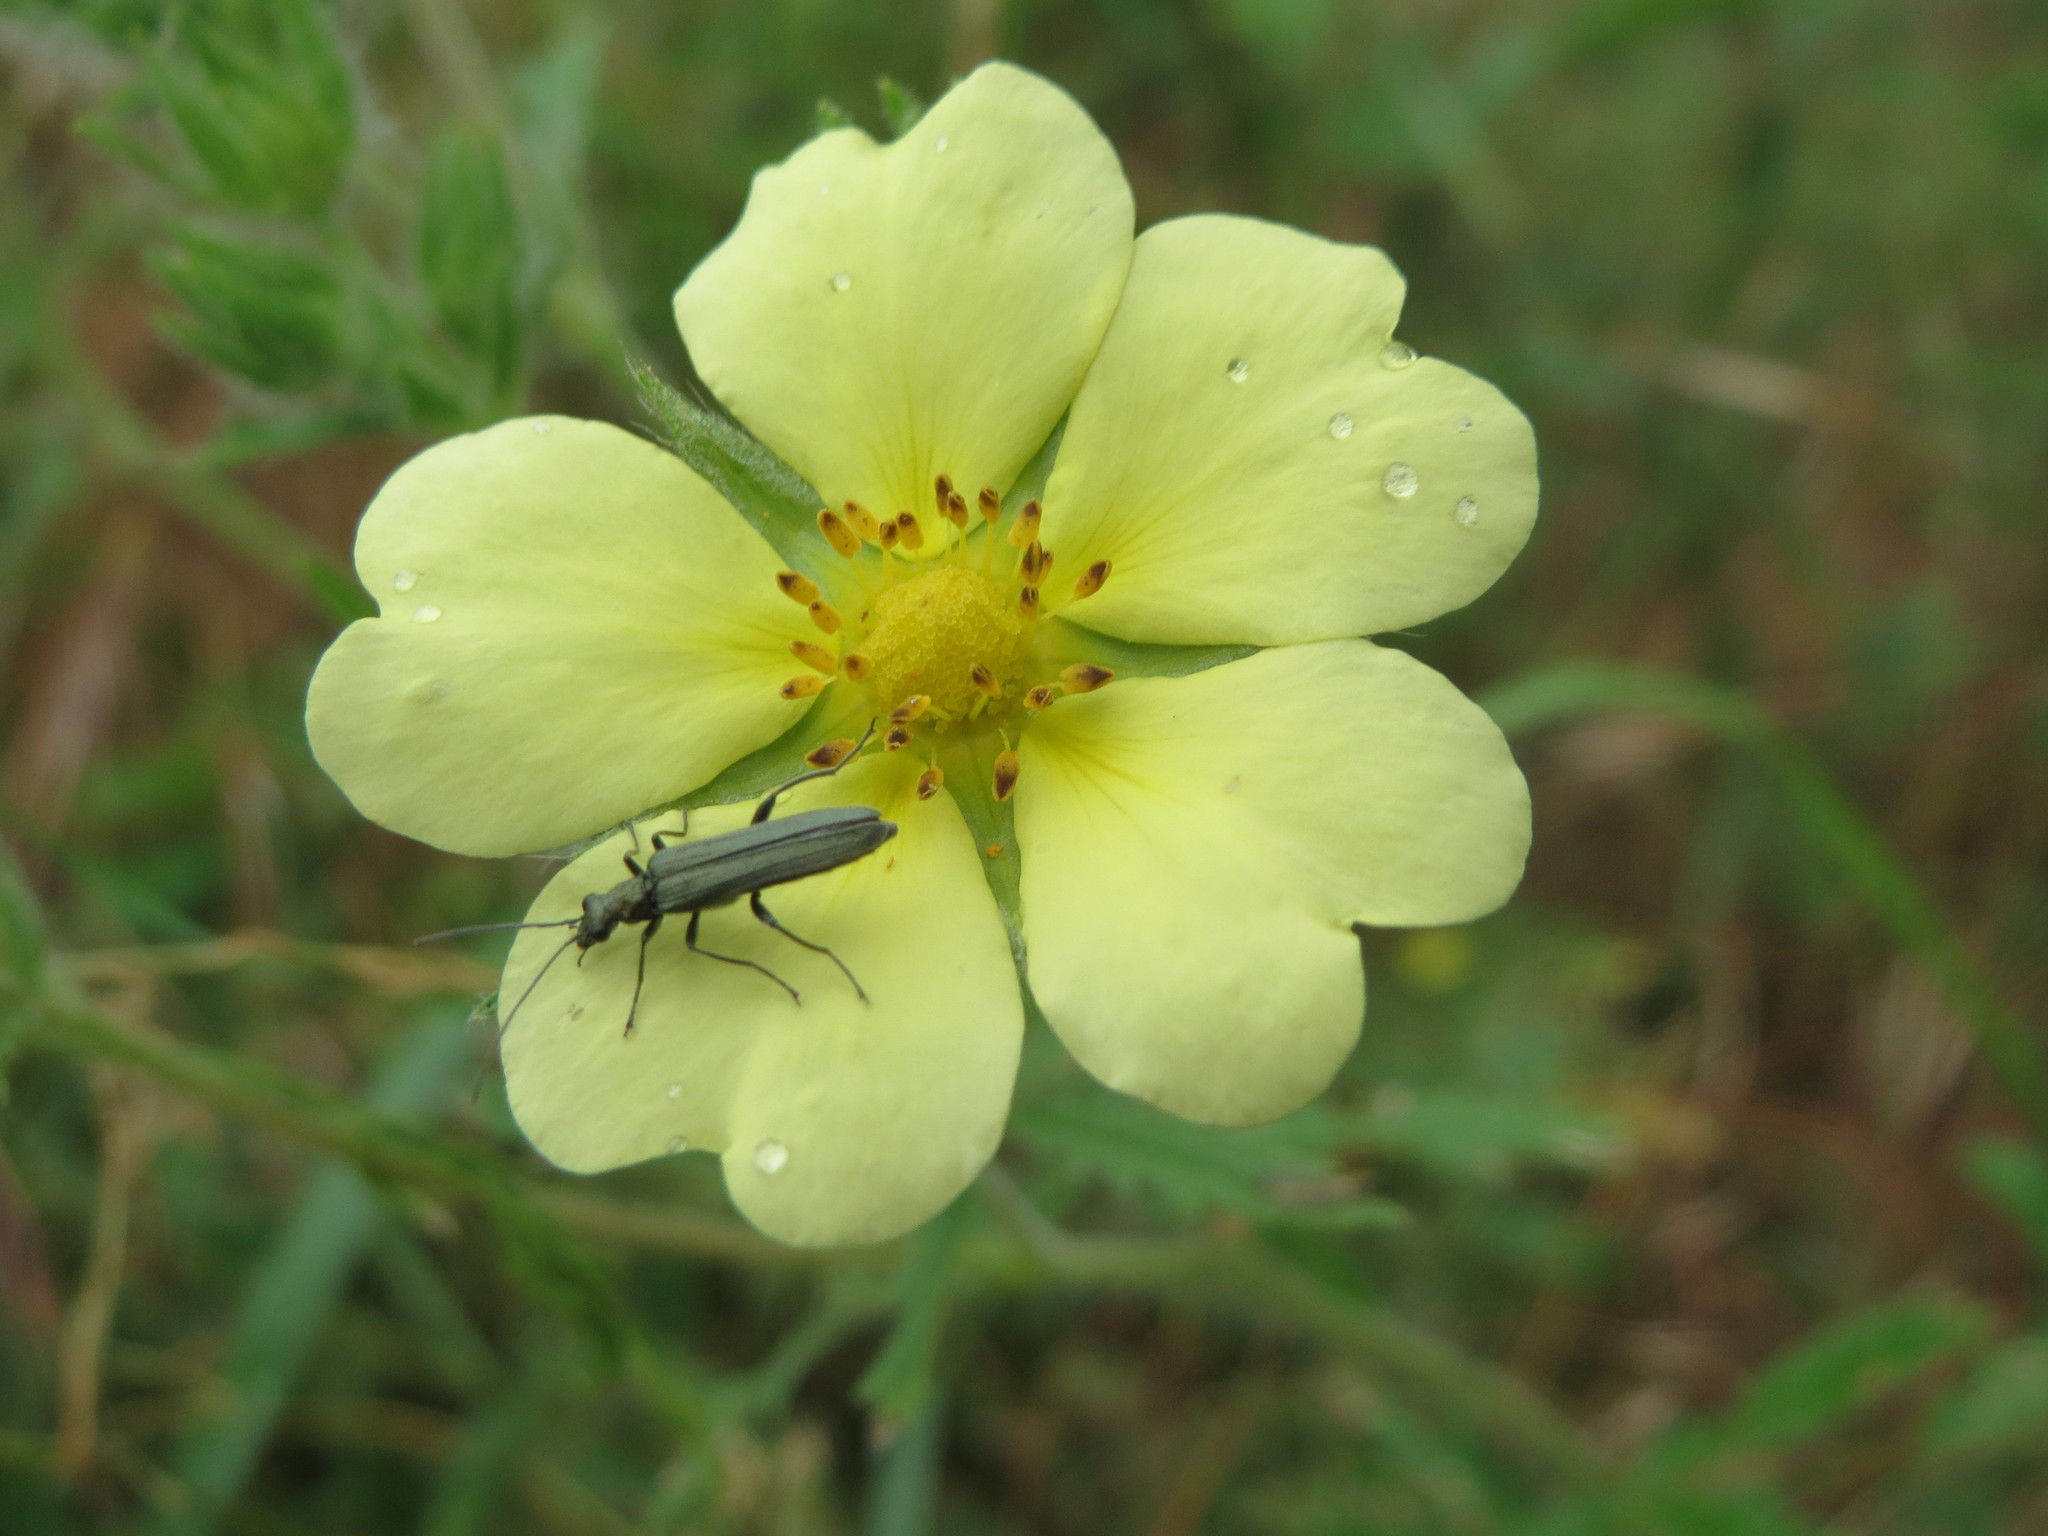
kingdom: Plantae
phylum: Tracheophyta
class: Magnoliopsida
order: Rosales
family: Rosaceae
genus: Potentilla
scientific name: Potentilla recta
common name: Sulphur cinquefoil
